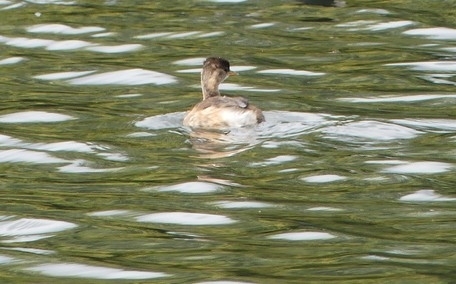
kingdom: Animalia
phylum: Chordata
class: Aves
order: Podicipediformes
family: Podicipedidae
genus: Tachybaptus
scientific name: Tachybaptus ruficollis
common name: Little grebe
